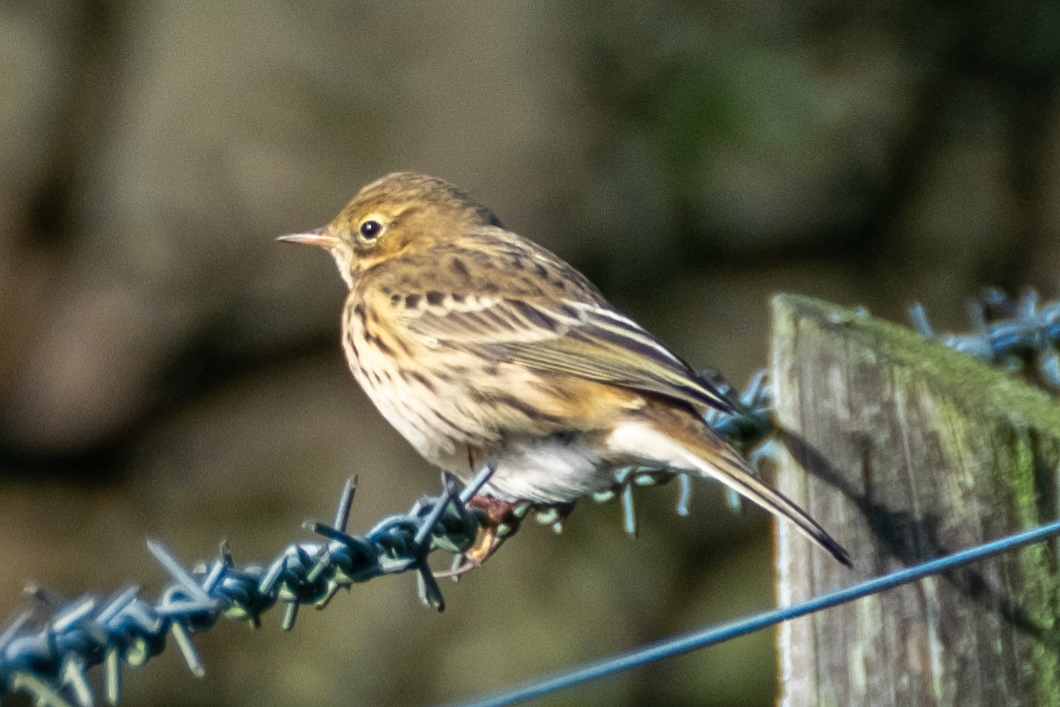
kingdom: Animalia
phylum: Chordata
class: Aves
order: Passeriformes
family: Motacillidae
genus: Anthus
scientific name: Anthus pratensis
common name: Meadow pipit
